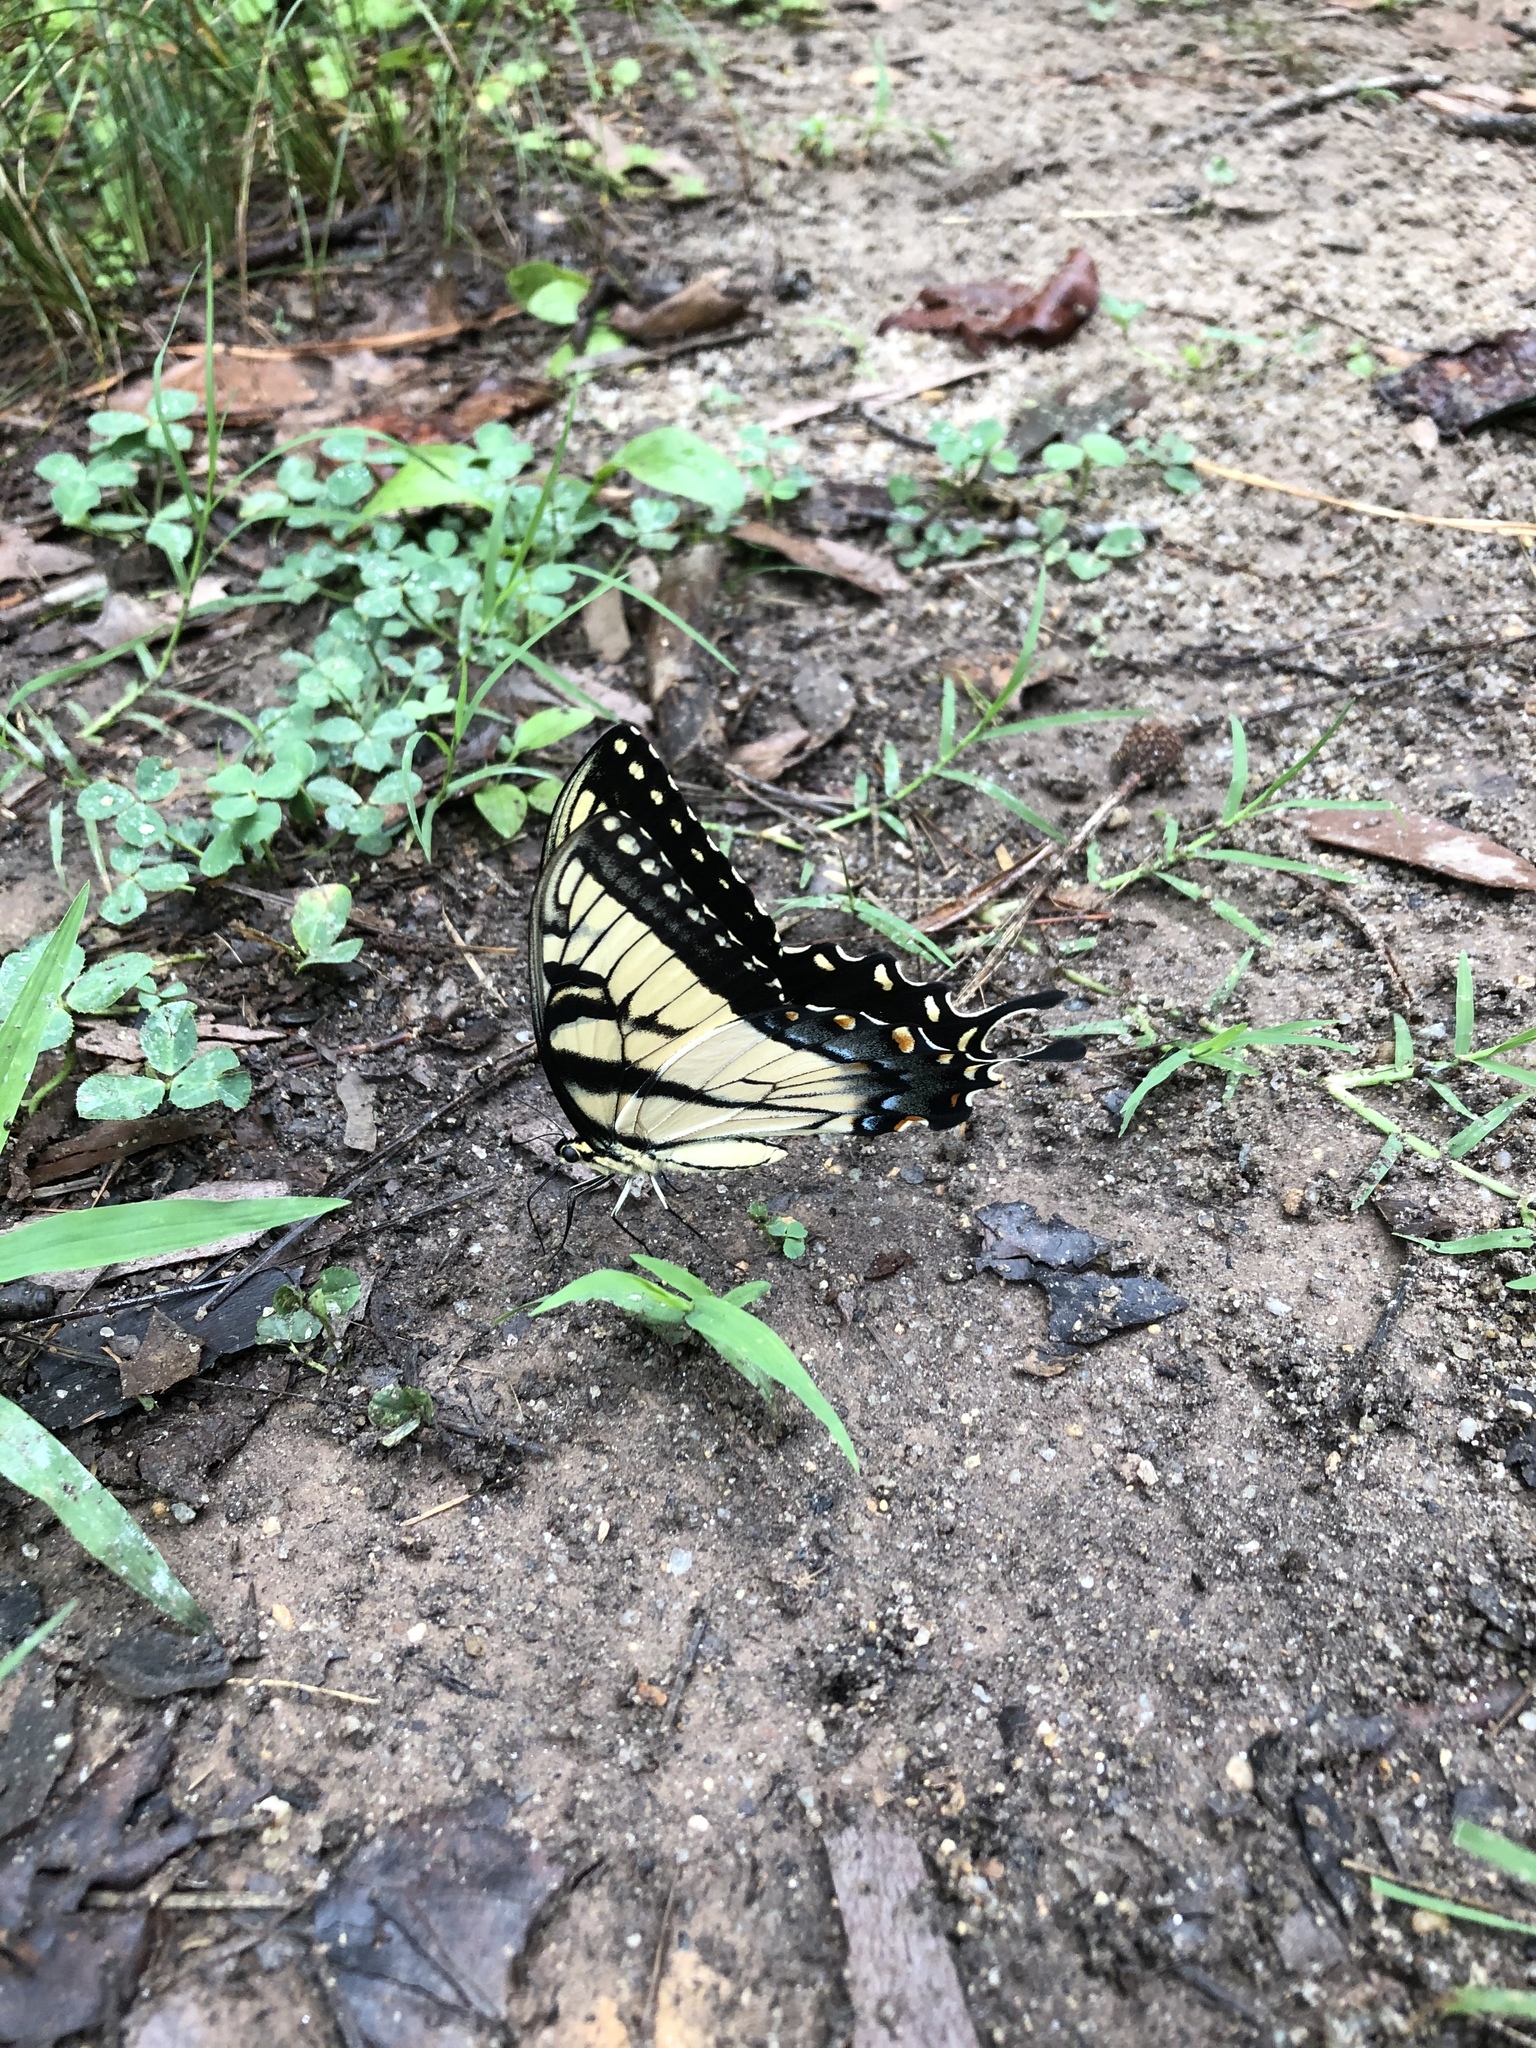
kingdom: Animalia
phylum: Arthropoda
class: Insecta
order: Lepidoptera
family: Papilionidae
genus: Papilio
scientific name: Papilio glaucus
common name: Tiger swallowtail
